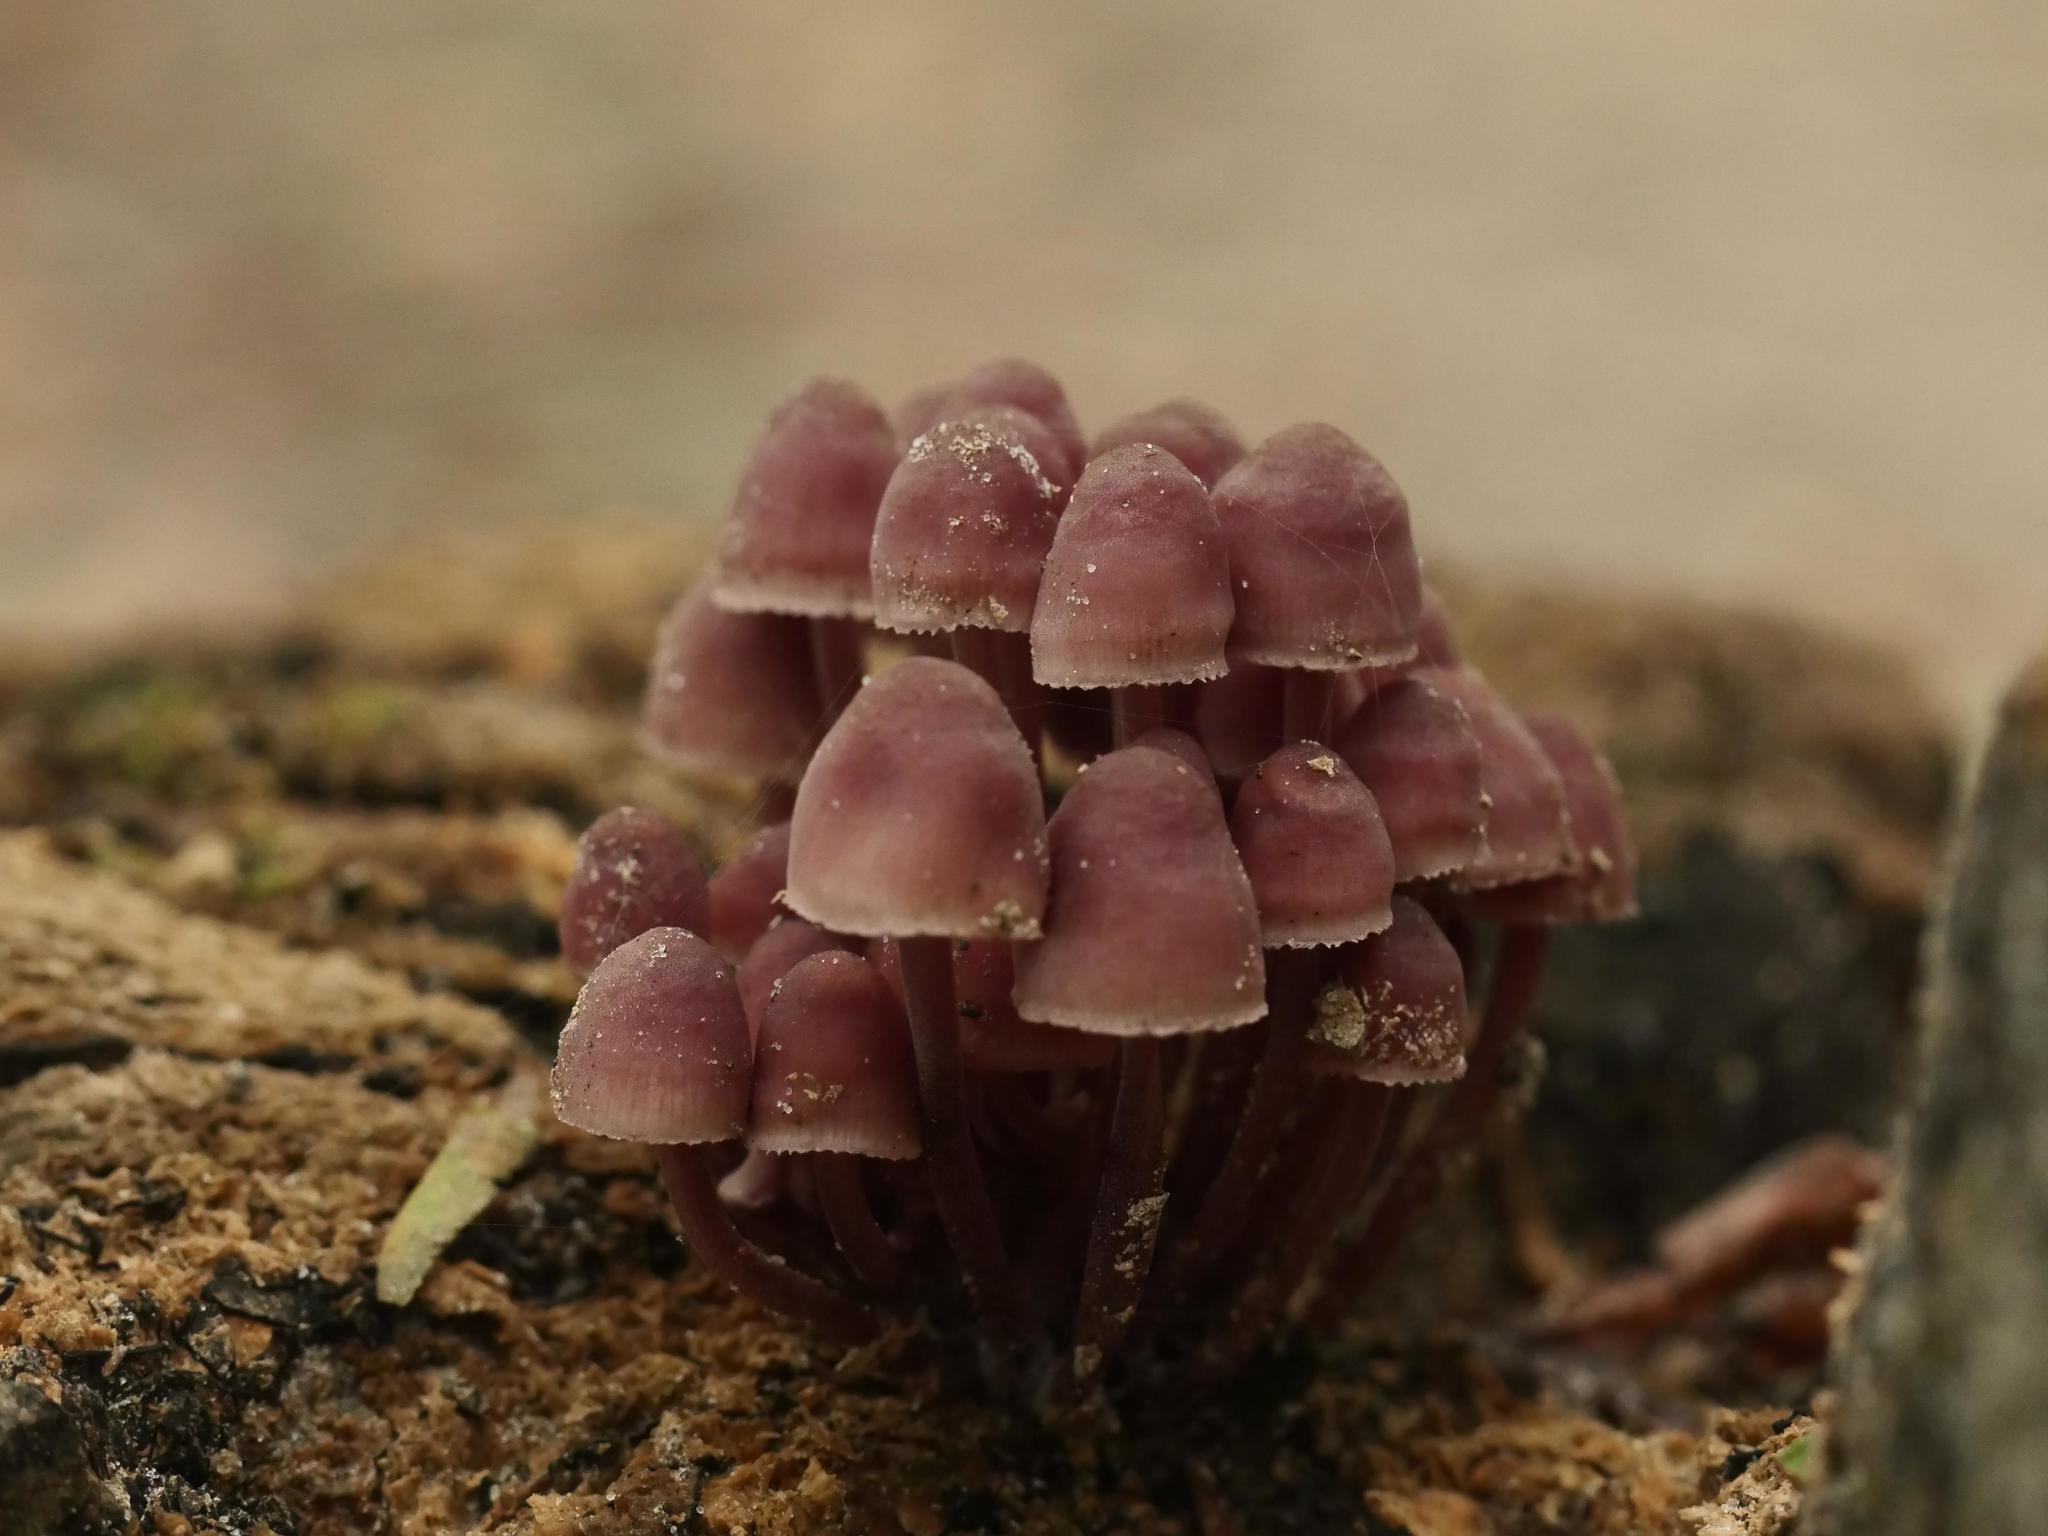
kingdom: Fungi
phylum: Basidiomycota
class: Agaricomycetes
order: Agaricales
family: Mycenaceae
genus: Mycena
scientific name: Mycena haematopus
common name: Burgundydrop bonnet
